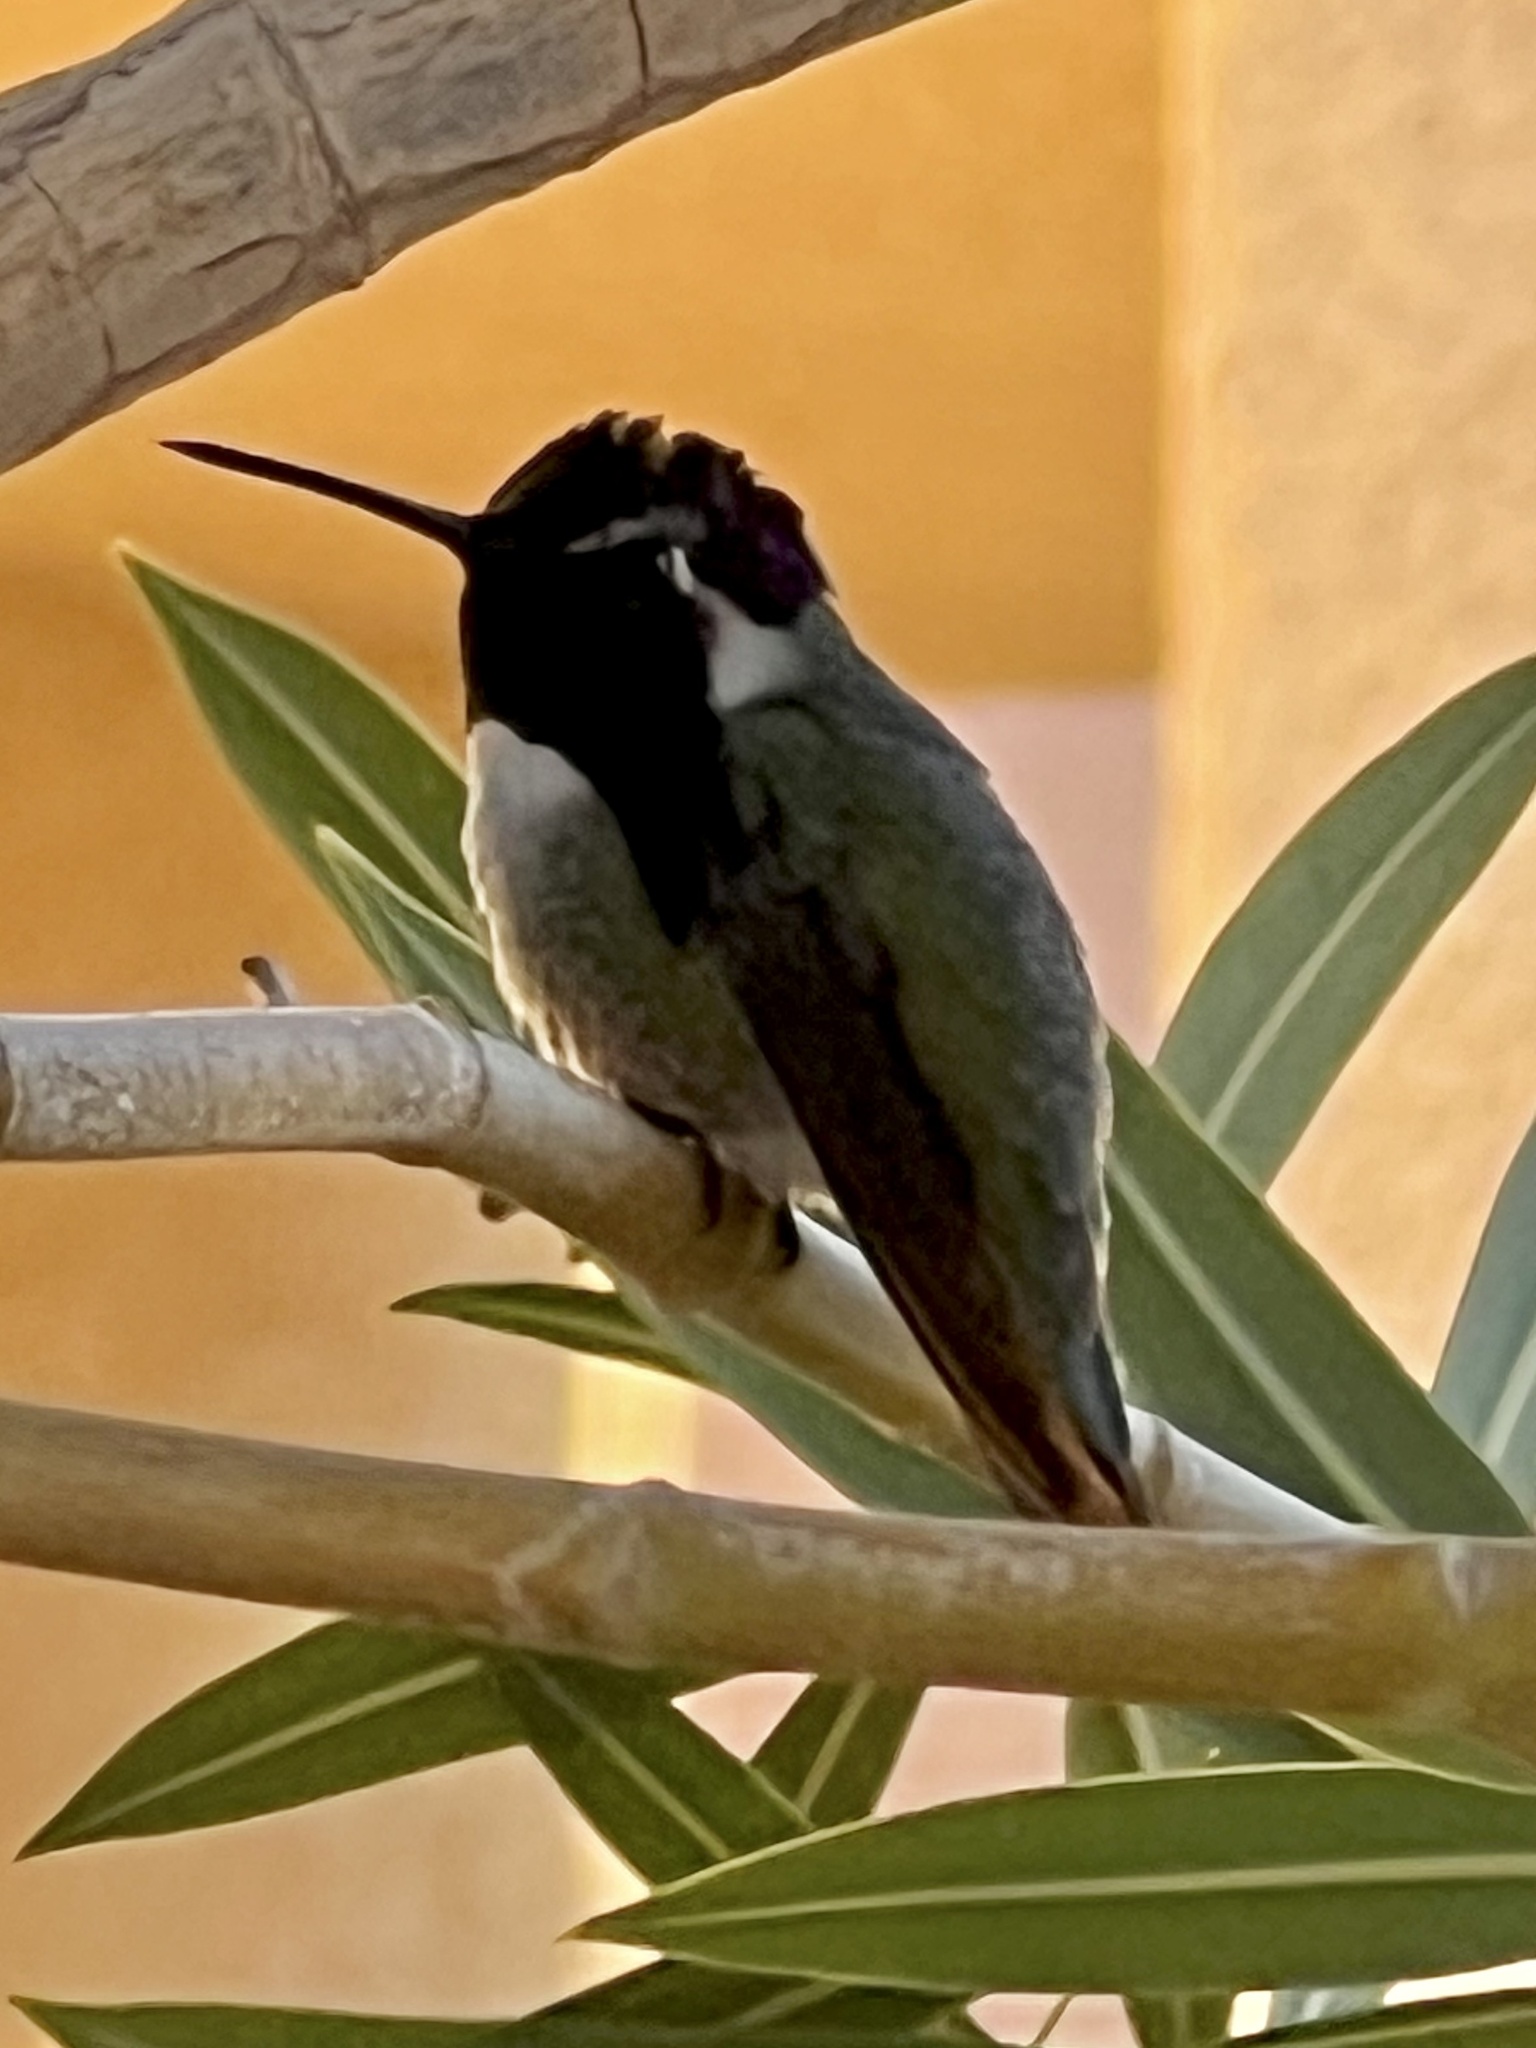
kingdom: Animalia
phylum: Chordata
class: Aves
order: Apodiformes
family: Trochilidae
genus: Calypte
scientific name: Calypte costae
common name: Costa's hummingbird
